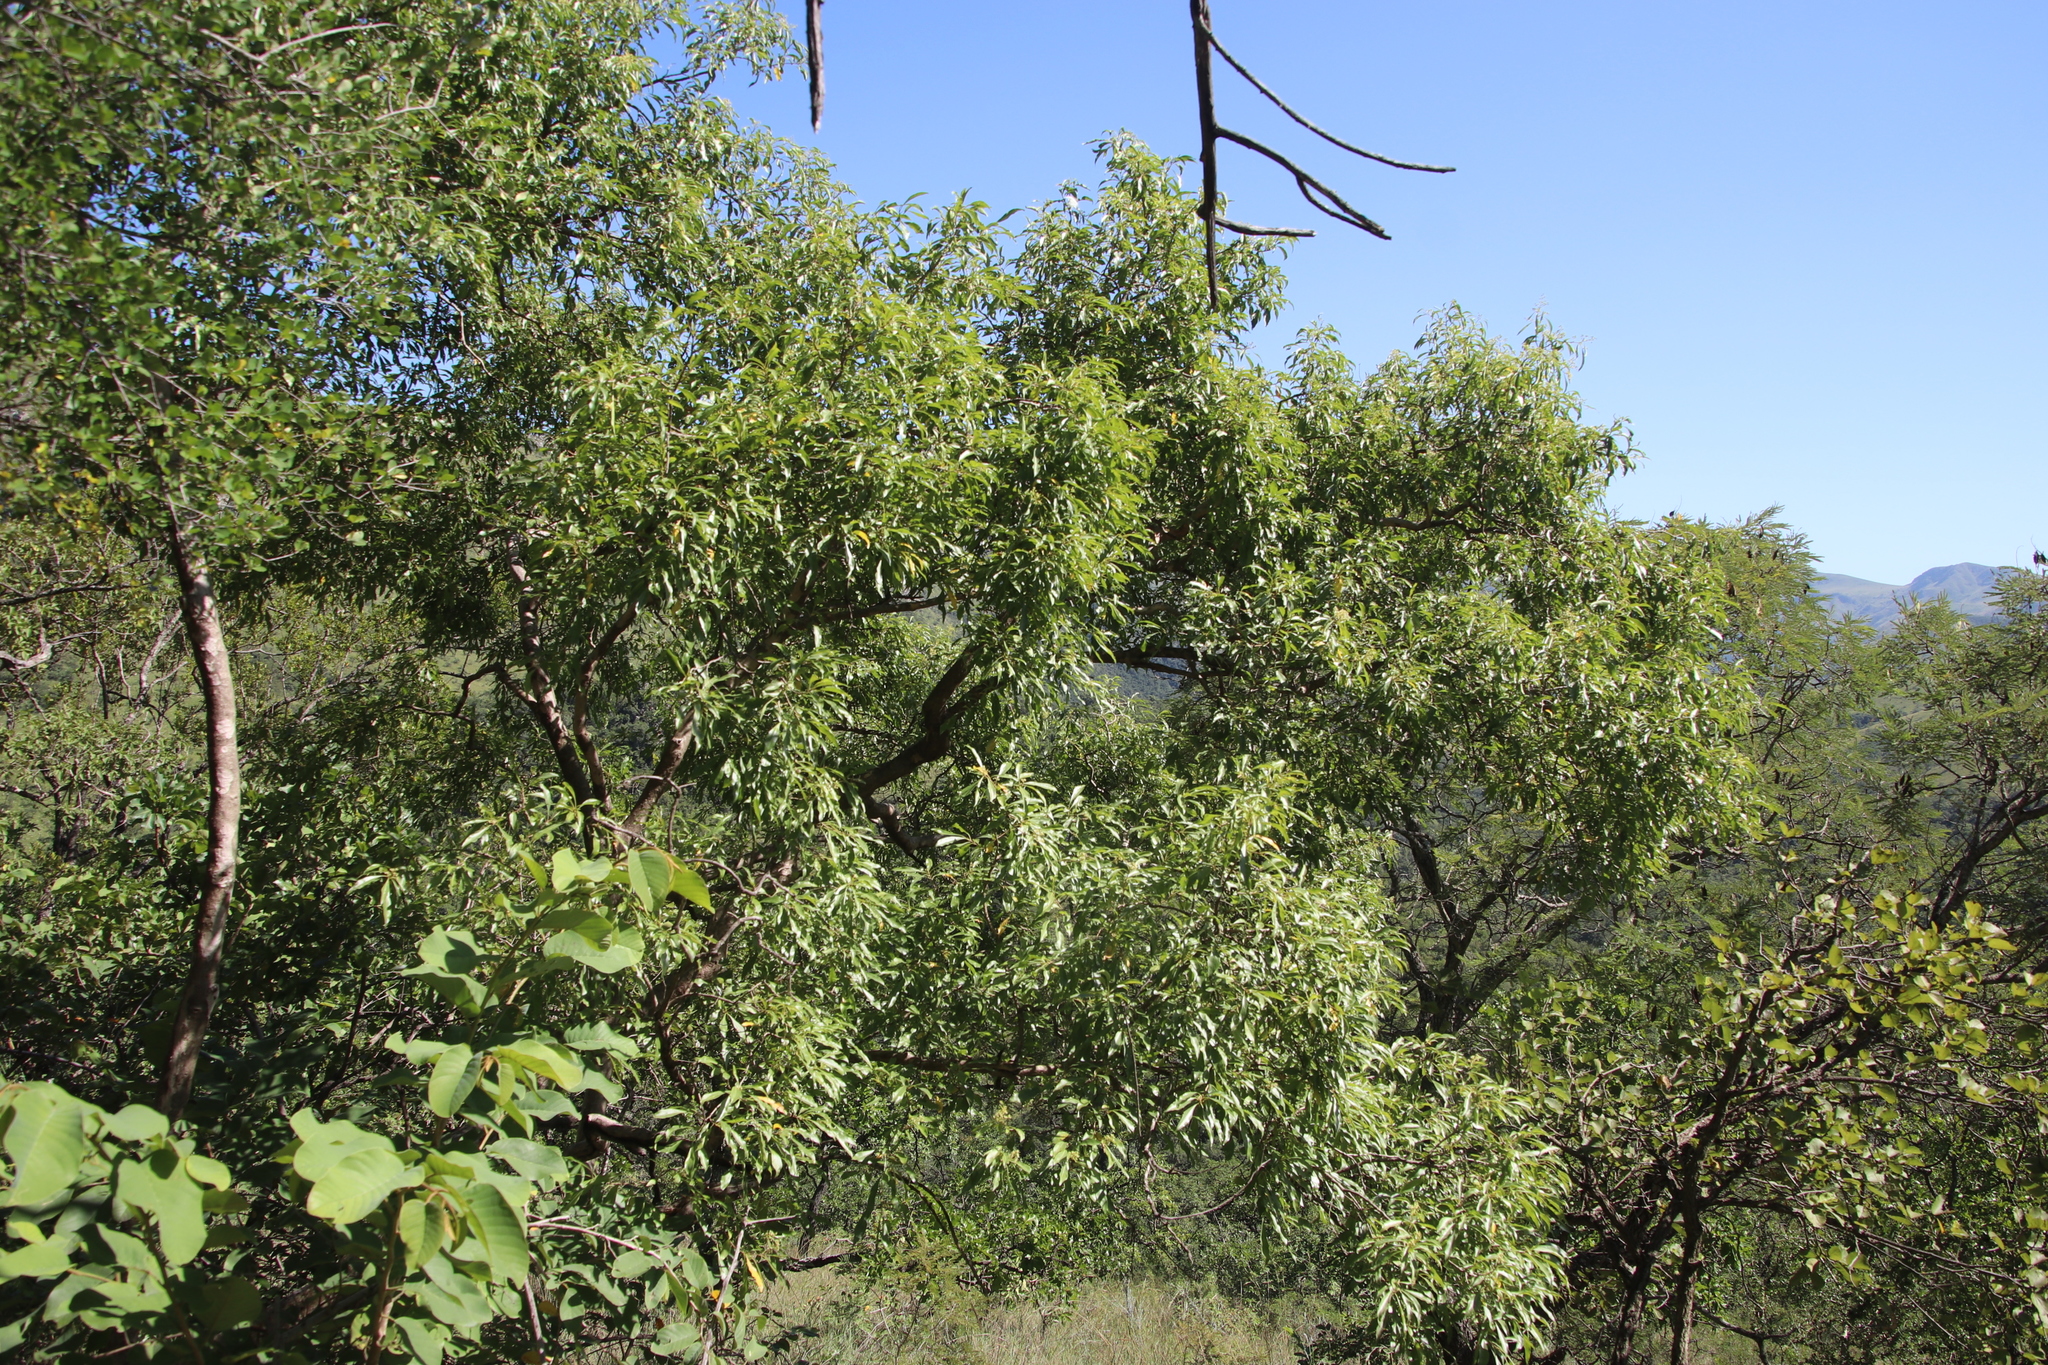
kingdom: Plantae
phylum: Tracheophyta
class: Magnoliopsida
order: Myrtales
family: Myrtaceae
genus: Heteropyxis
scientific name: Heteropyxis natalensis
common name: Lavender tree
